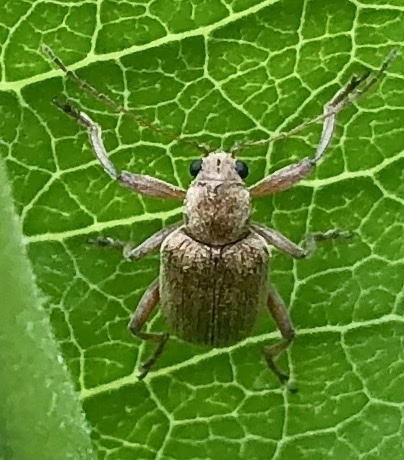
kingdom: Animalia
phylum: Arthropoda
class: Insecta
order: Coleoptera
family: Chrysomelidae
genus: Neofidia
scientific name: Neofidia
